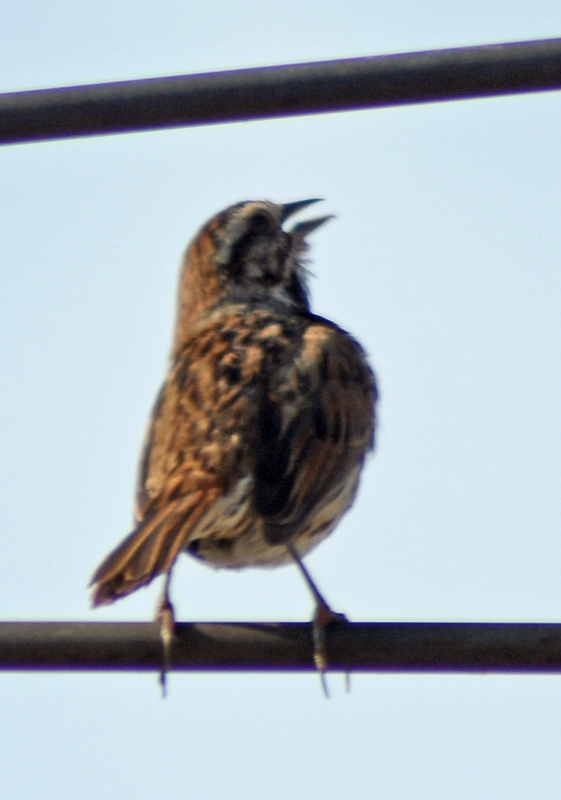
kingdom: Animalia
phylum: Chordata
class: Aves
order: Passeriformes
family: Passerellidae
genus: Melospiza
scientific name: Melospiza melodia
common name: Song sparrow
